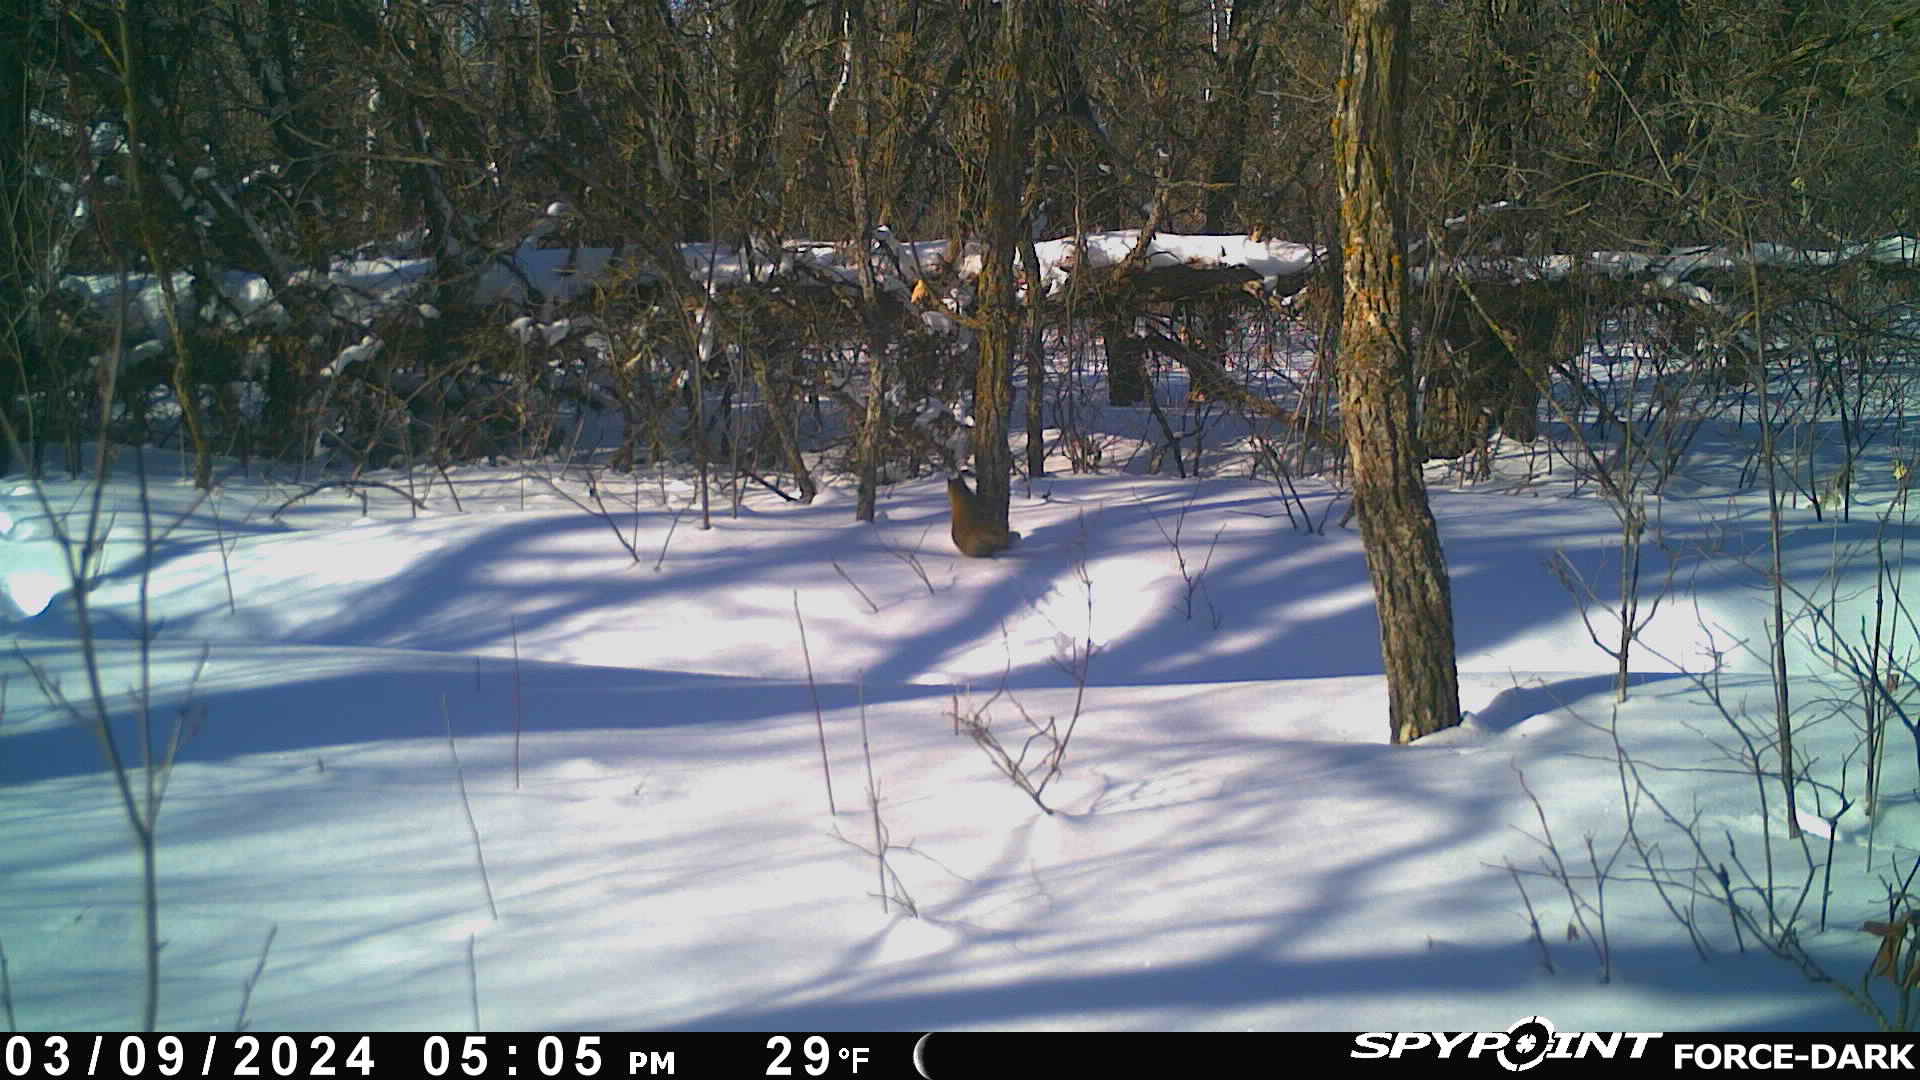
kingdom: Animalia
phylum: Chordata
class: Mammalia
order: Rodentia
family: Sciuridae
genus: Tamiasciurus
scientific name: Tamiasciurus hudsonicus
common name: Red squirrel
